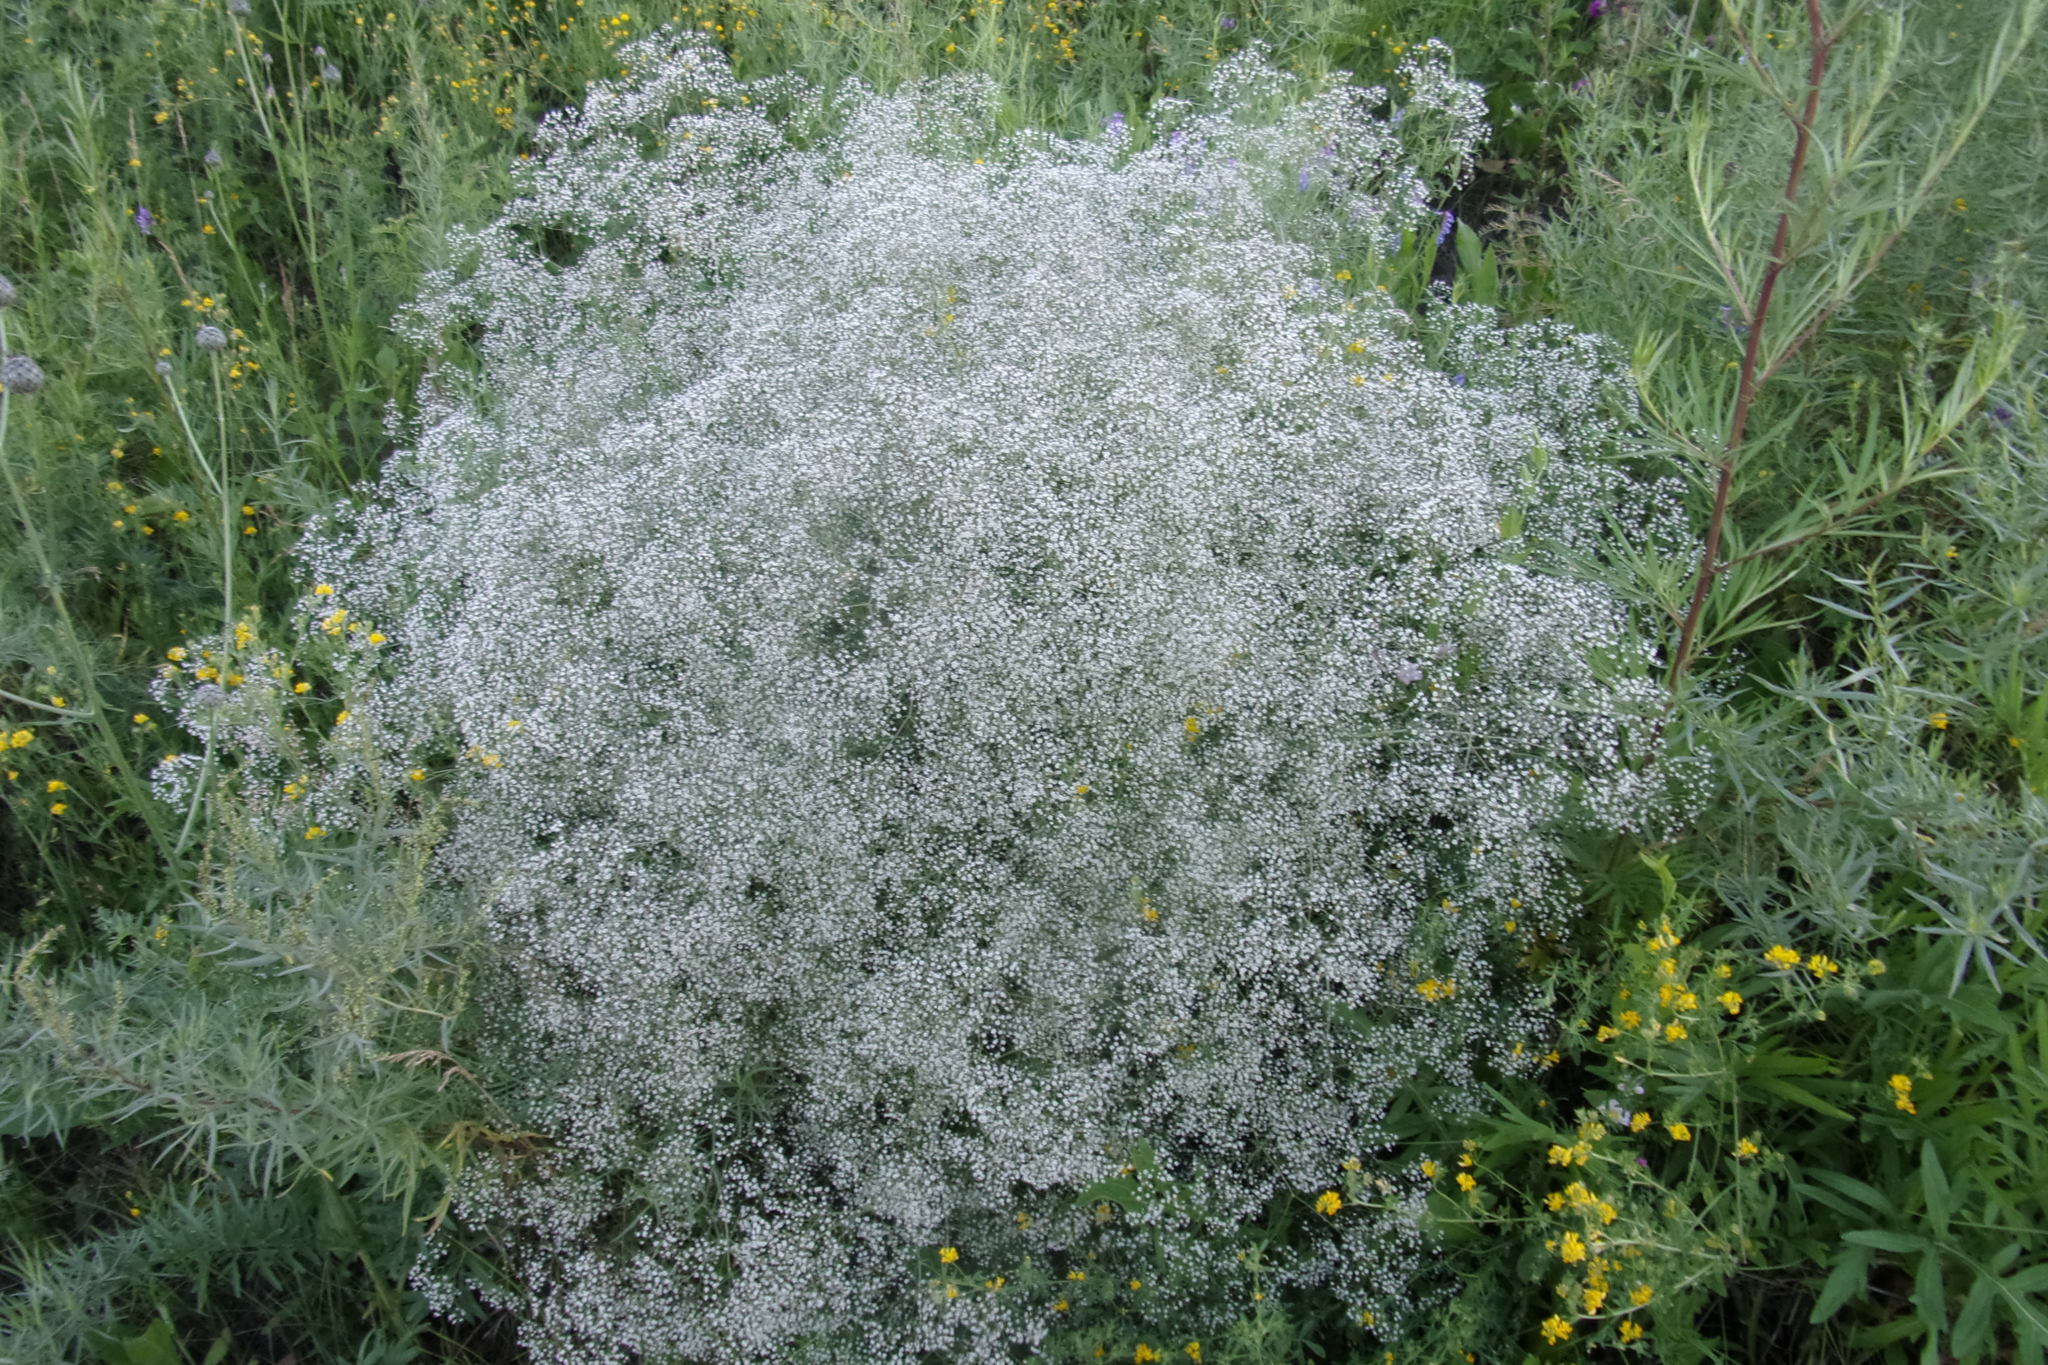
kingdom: Plantae
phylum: Tracheophyta
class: Magnoliopsida
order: Caryophyllales
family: Caryophyllaceae
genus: Gypsophila
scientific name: Gypsophila paniculata
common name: Baby's-breath
